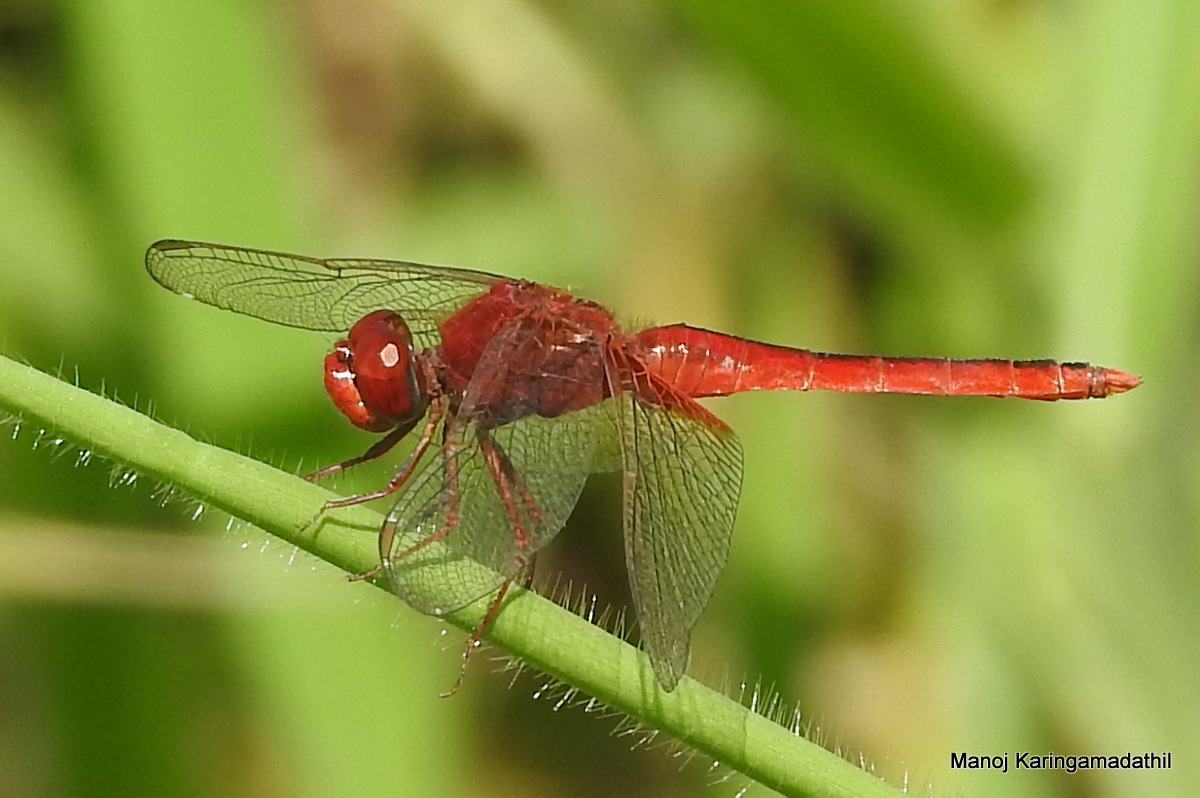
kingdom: Animalia
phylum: Arthropoda
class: Insecta
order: Odonata
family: Libellulidae
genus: Crocothemis
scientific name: Crocothemis servilia
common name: Scarlet skimmer
